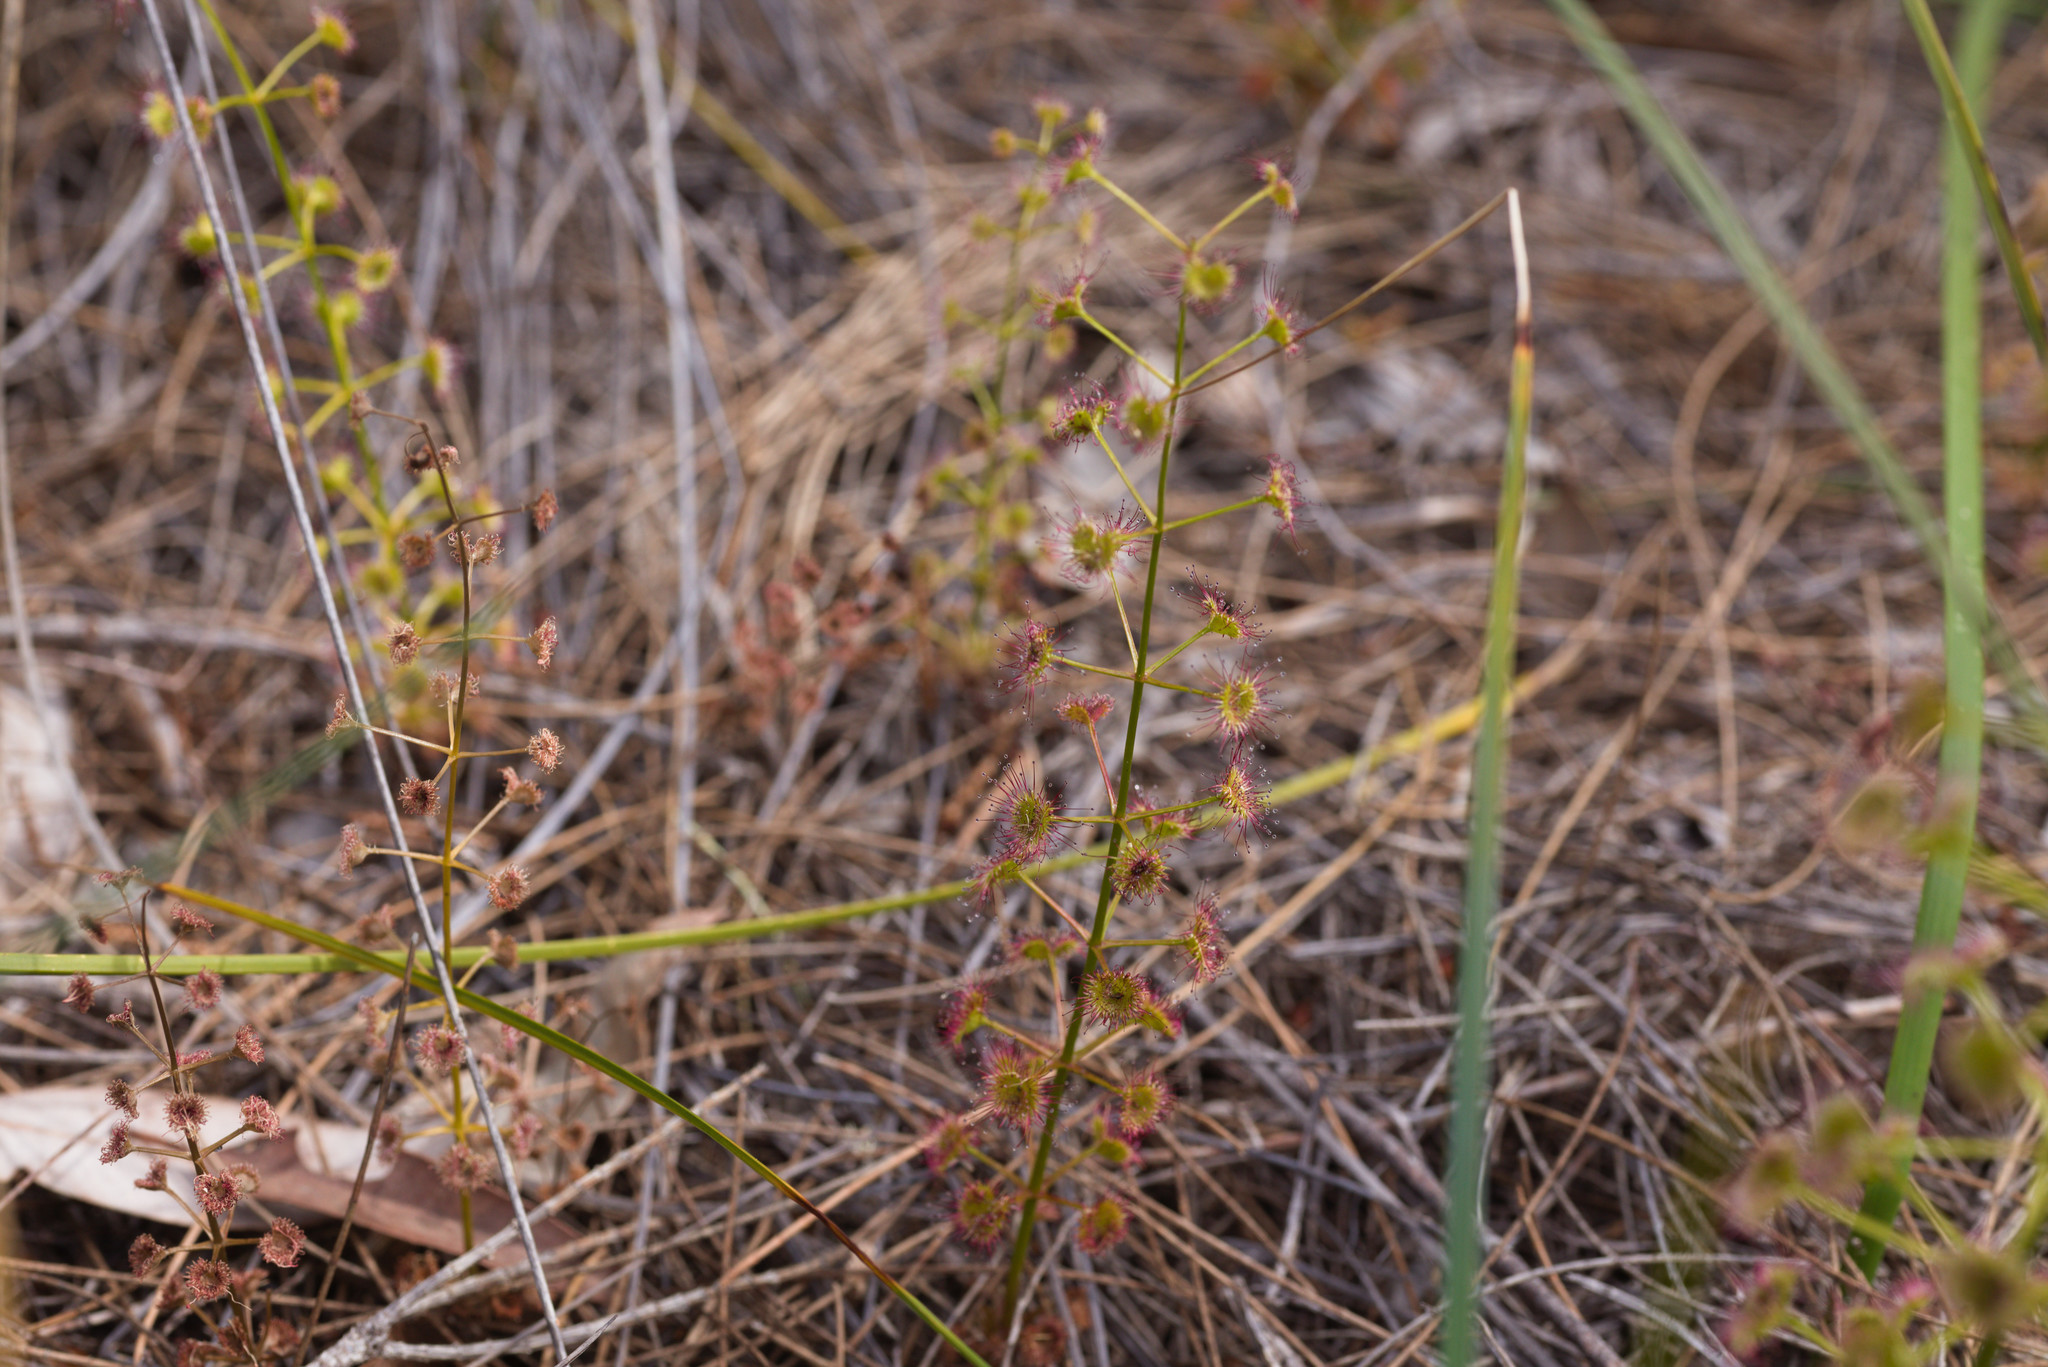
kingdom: Plantae
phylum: Tracheophyta
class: Magnoliopsida
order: Caryophyllales
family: Droseraceae
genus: Drosera
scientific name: Drosera stolonifera
